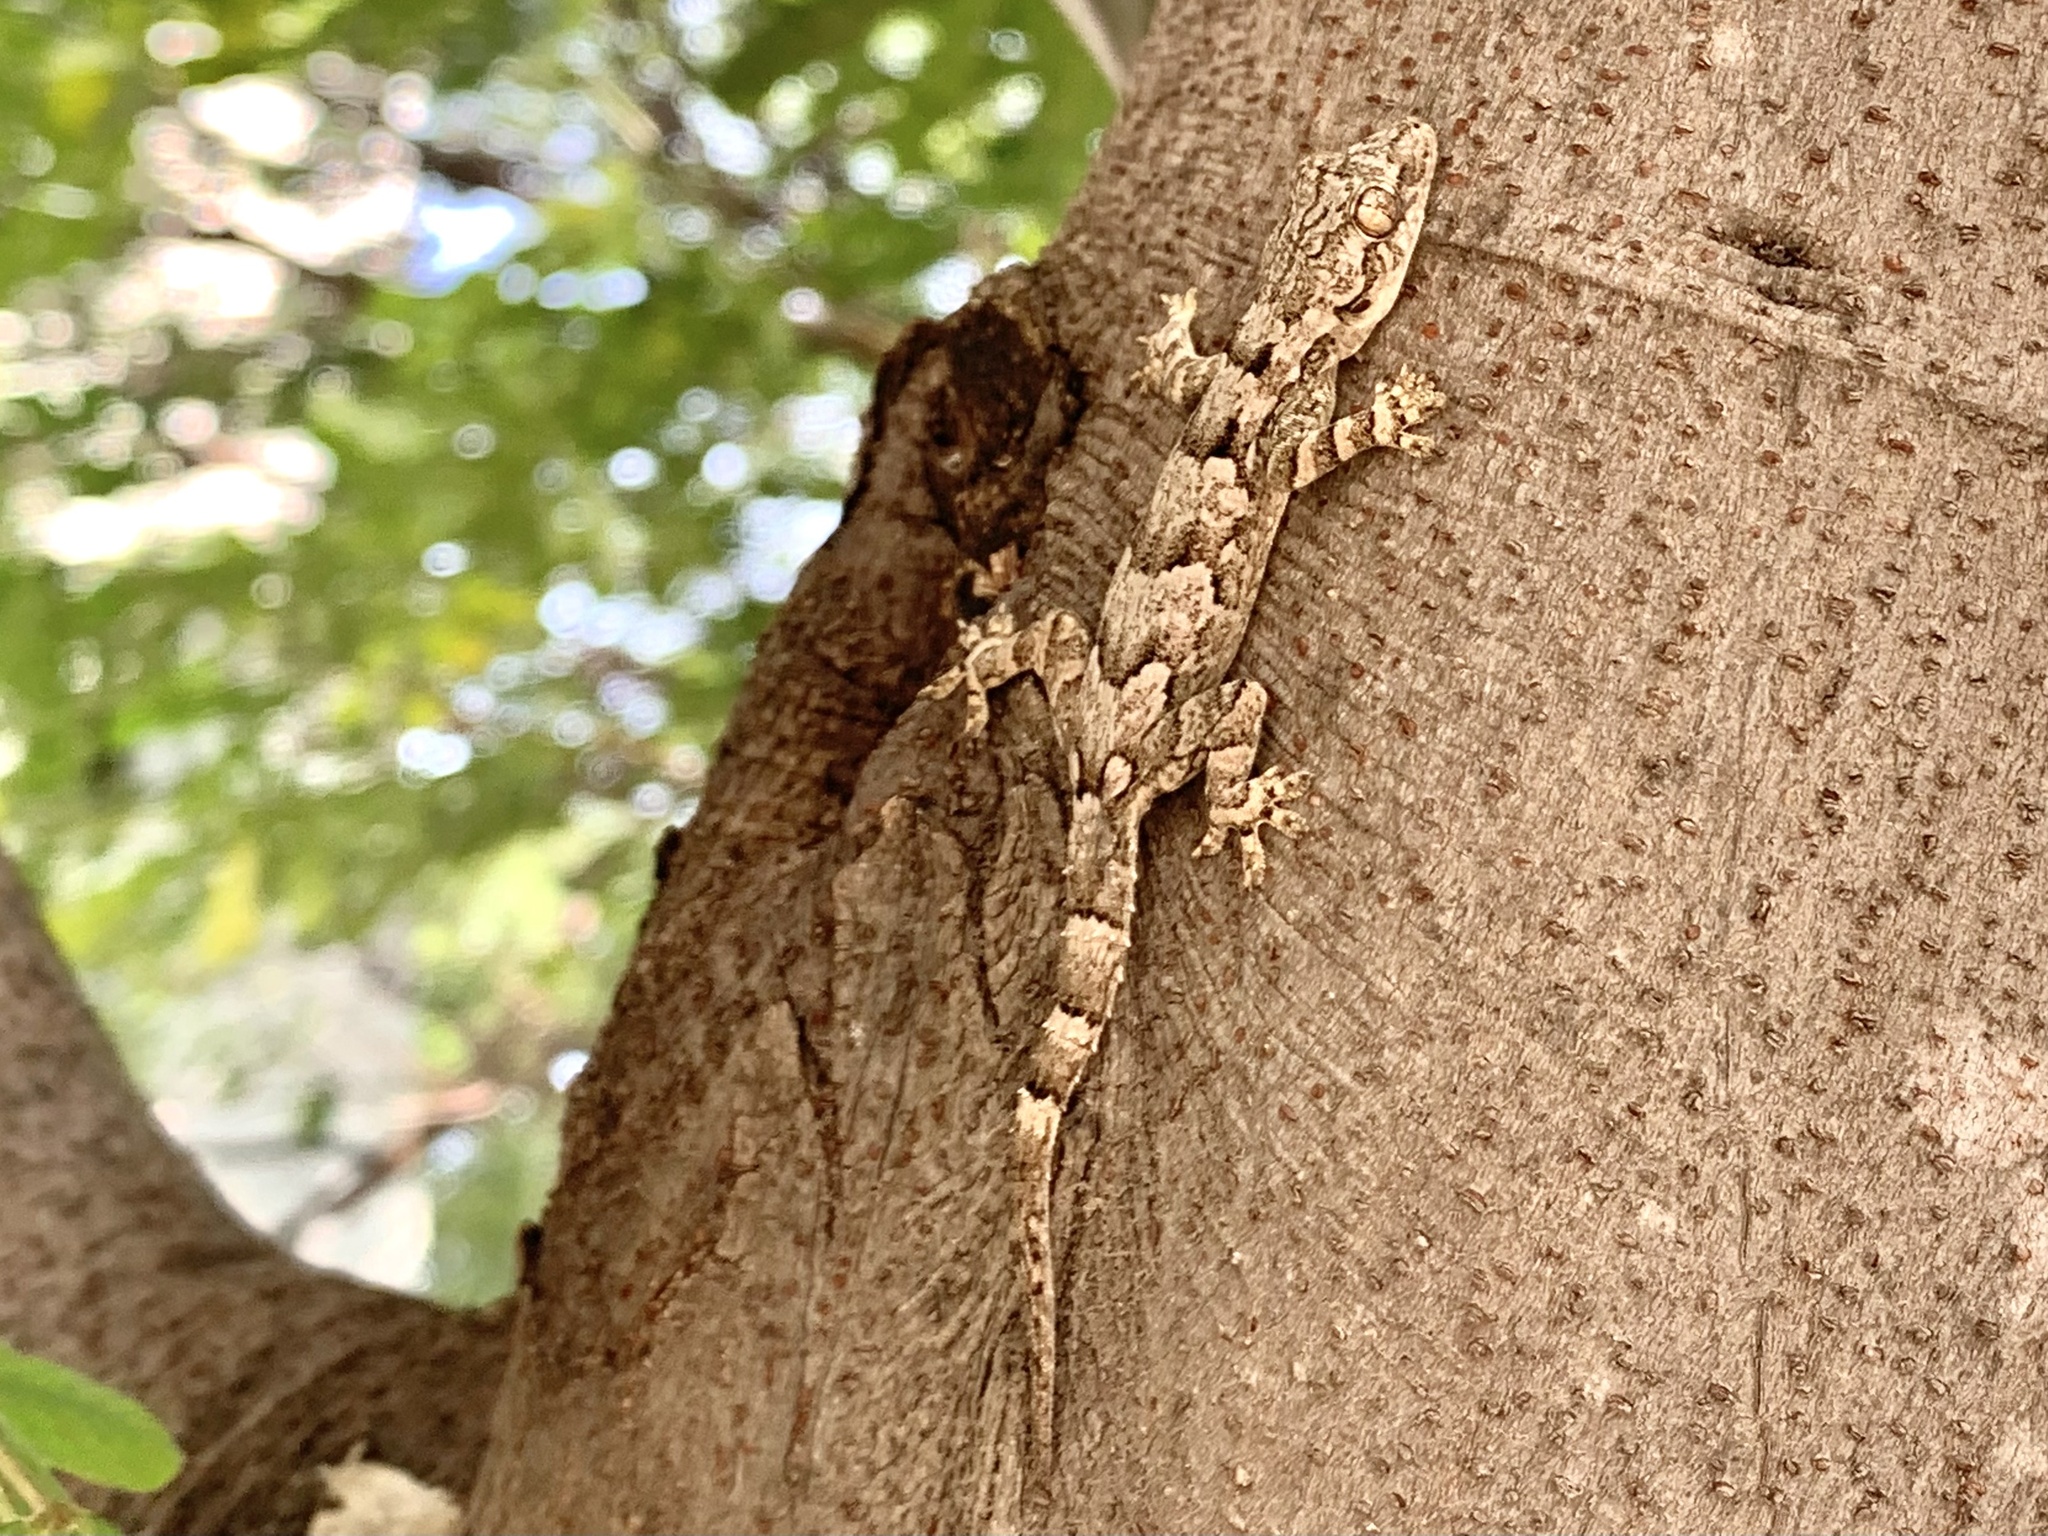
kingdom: Animalia
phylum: Chordata
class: Squamata
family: Gekkonidae
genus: Hemidactylus
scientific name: Hemidactylus leschenaultii
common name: Leschenault's leaf-toed gecko
